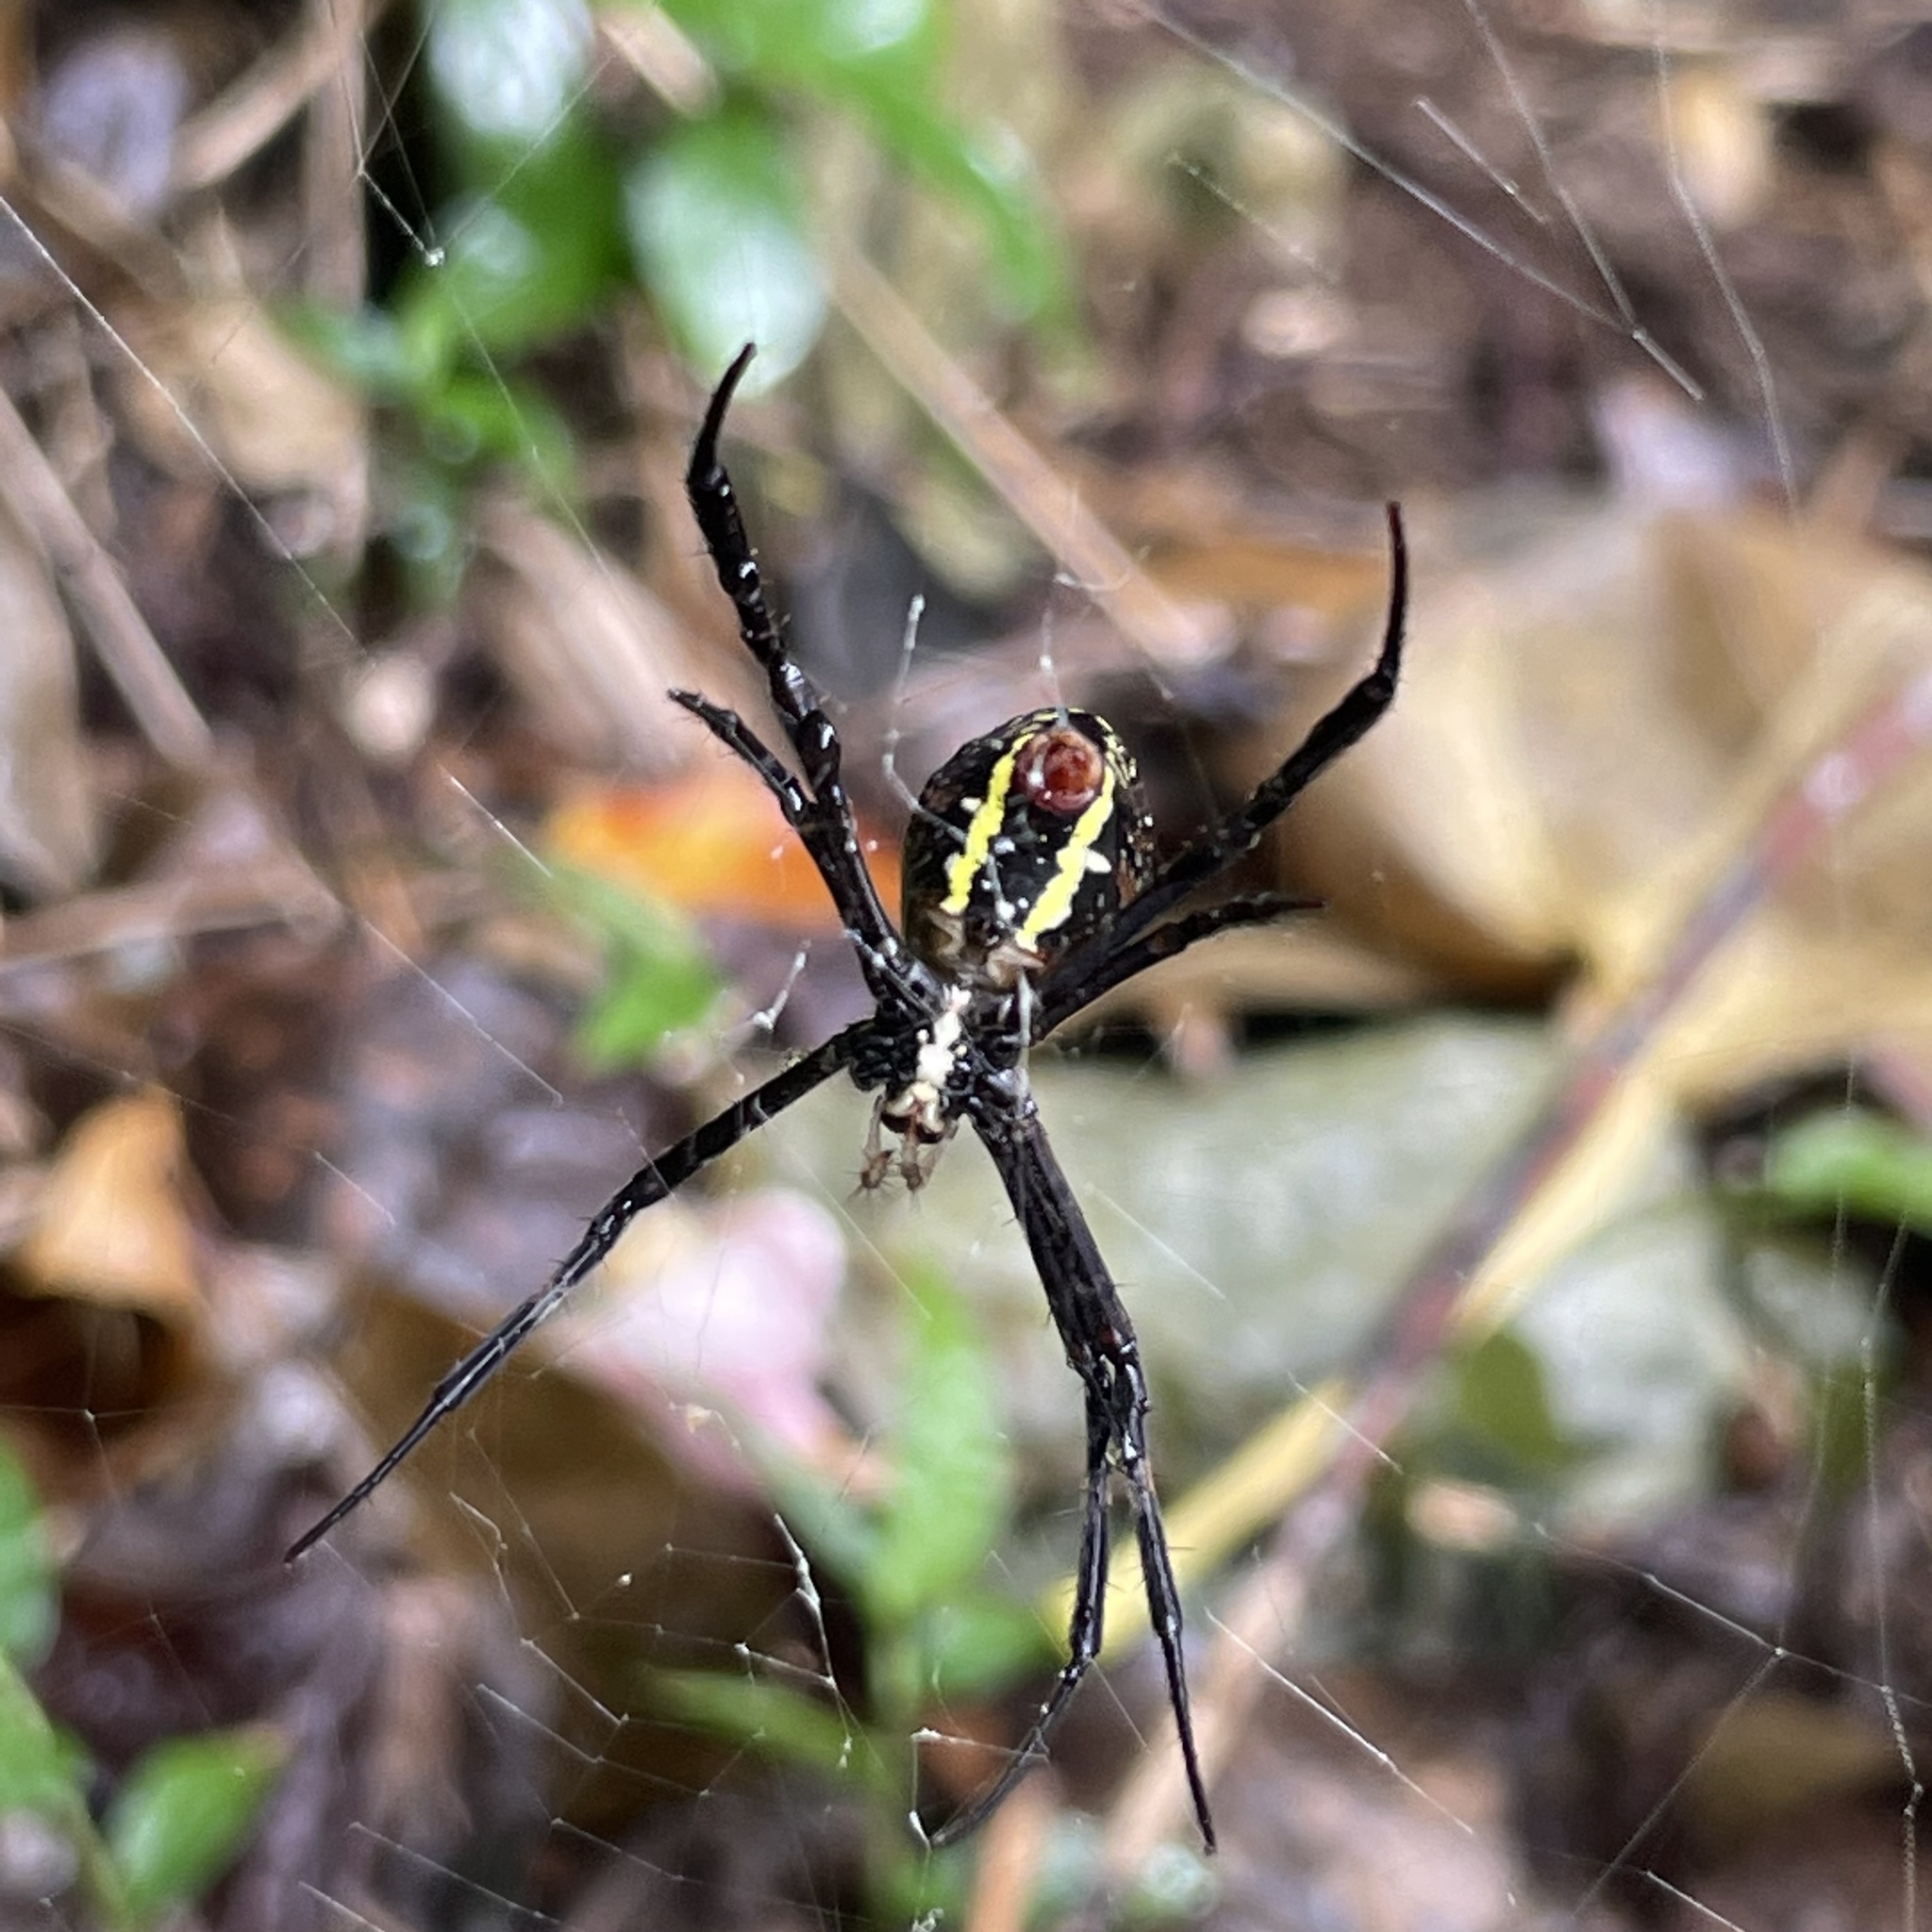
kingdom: Animalia
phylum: Arthropoda
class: Arachnida
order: Araneae
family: Araneidae
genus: Argiope
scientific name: Argiope amoena
